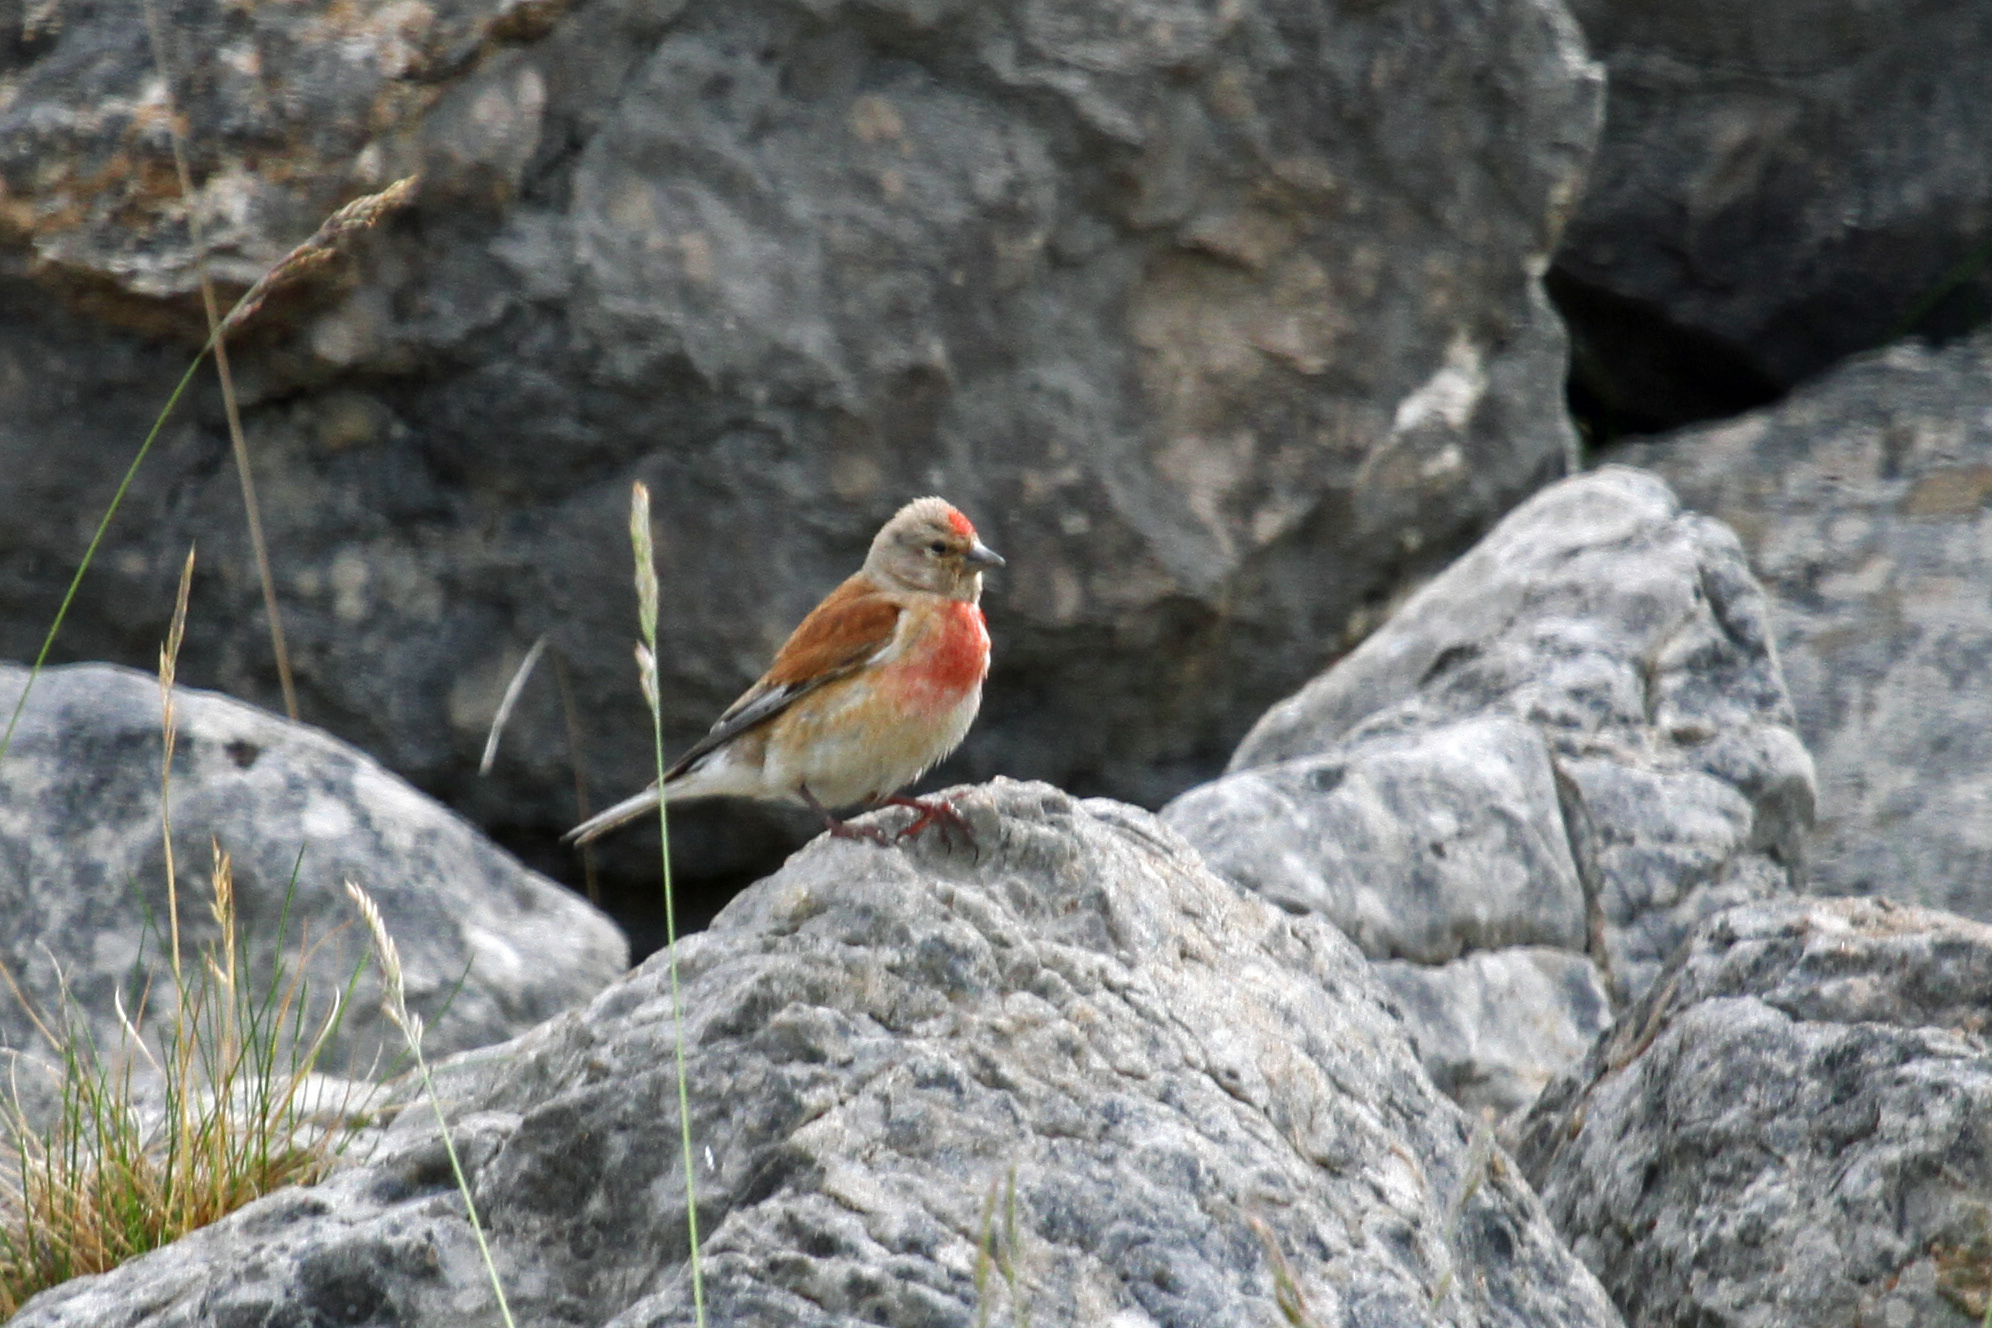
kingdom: Animalia
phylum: Chordata
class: Aves
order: Passeriformes
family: Fringillidae
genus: Linaria
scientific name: Linaria cannabina
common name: Common linnet
